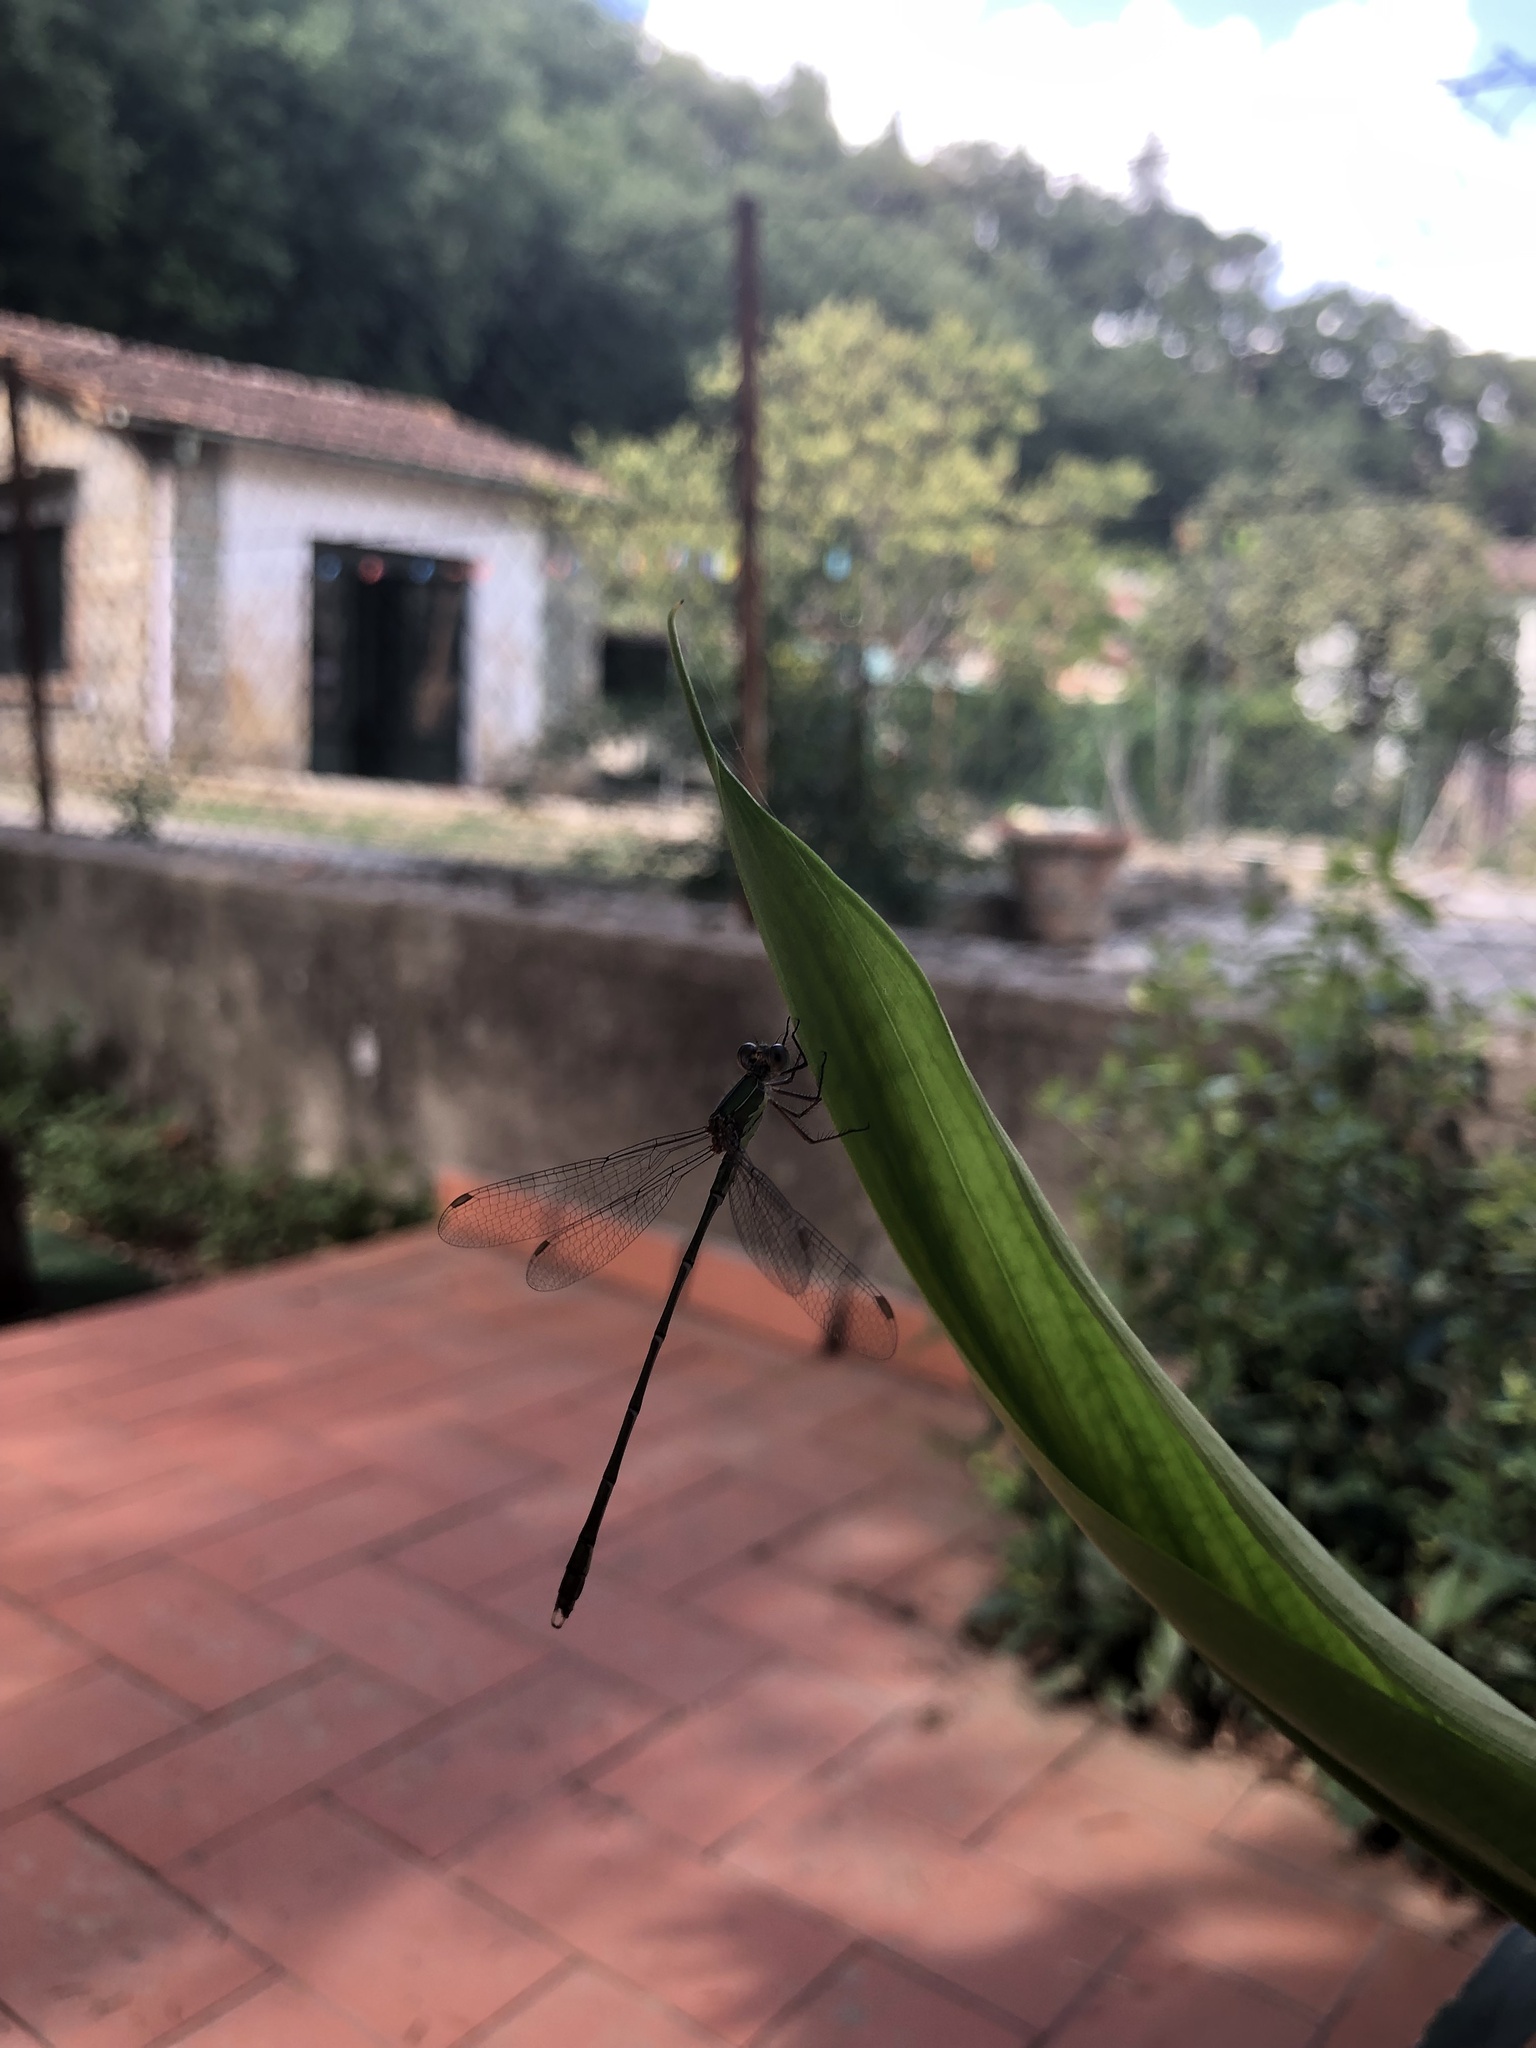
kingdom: Animalia
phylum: Arthropoda
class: Insecta
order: Odonata
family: Lestidae
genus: Chalcolestes
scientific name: Chalcolestes viridis
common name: Green emerald damselfly
